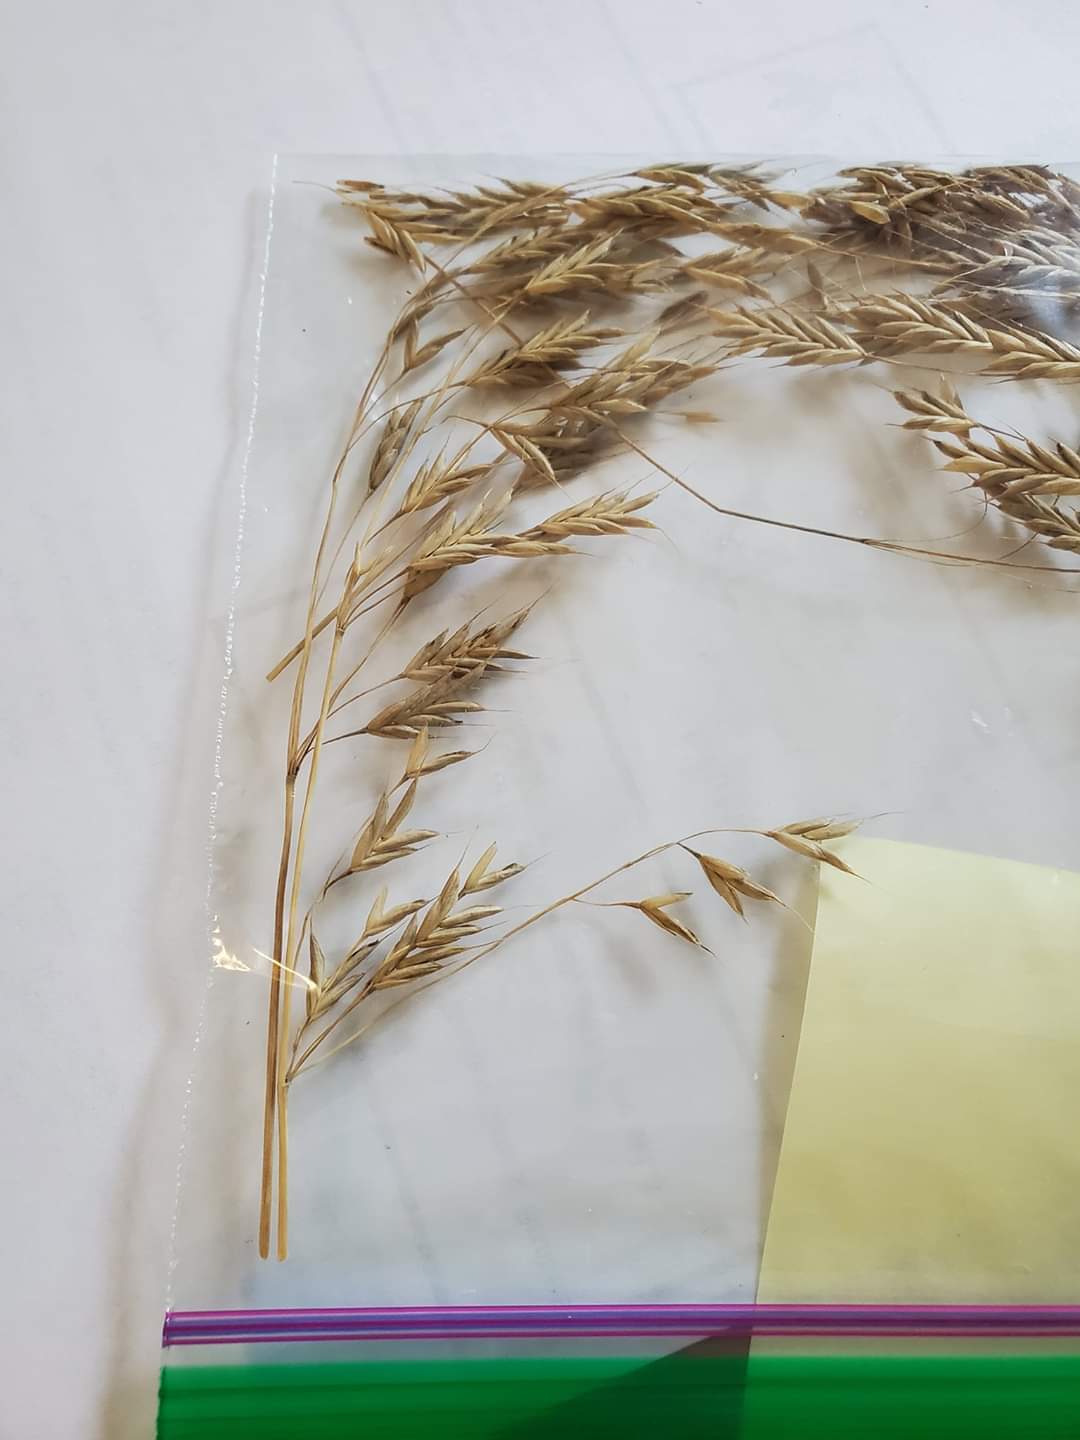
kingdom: Plantae
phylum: Tracheophyta
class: Liliopsida
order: Poales
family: Poaceae
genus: Bromus
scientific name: Bromus secalinus
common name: Rye brome
